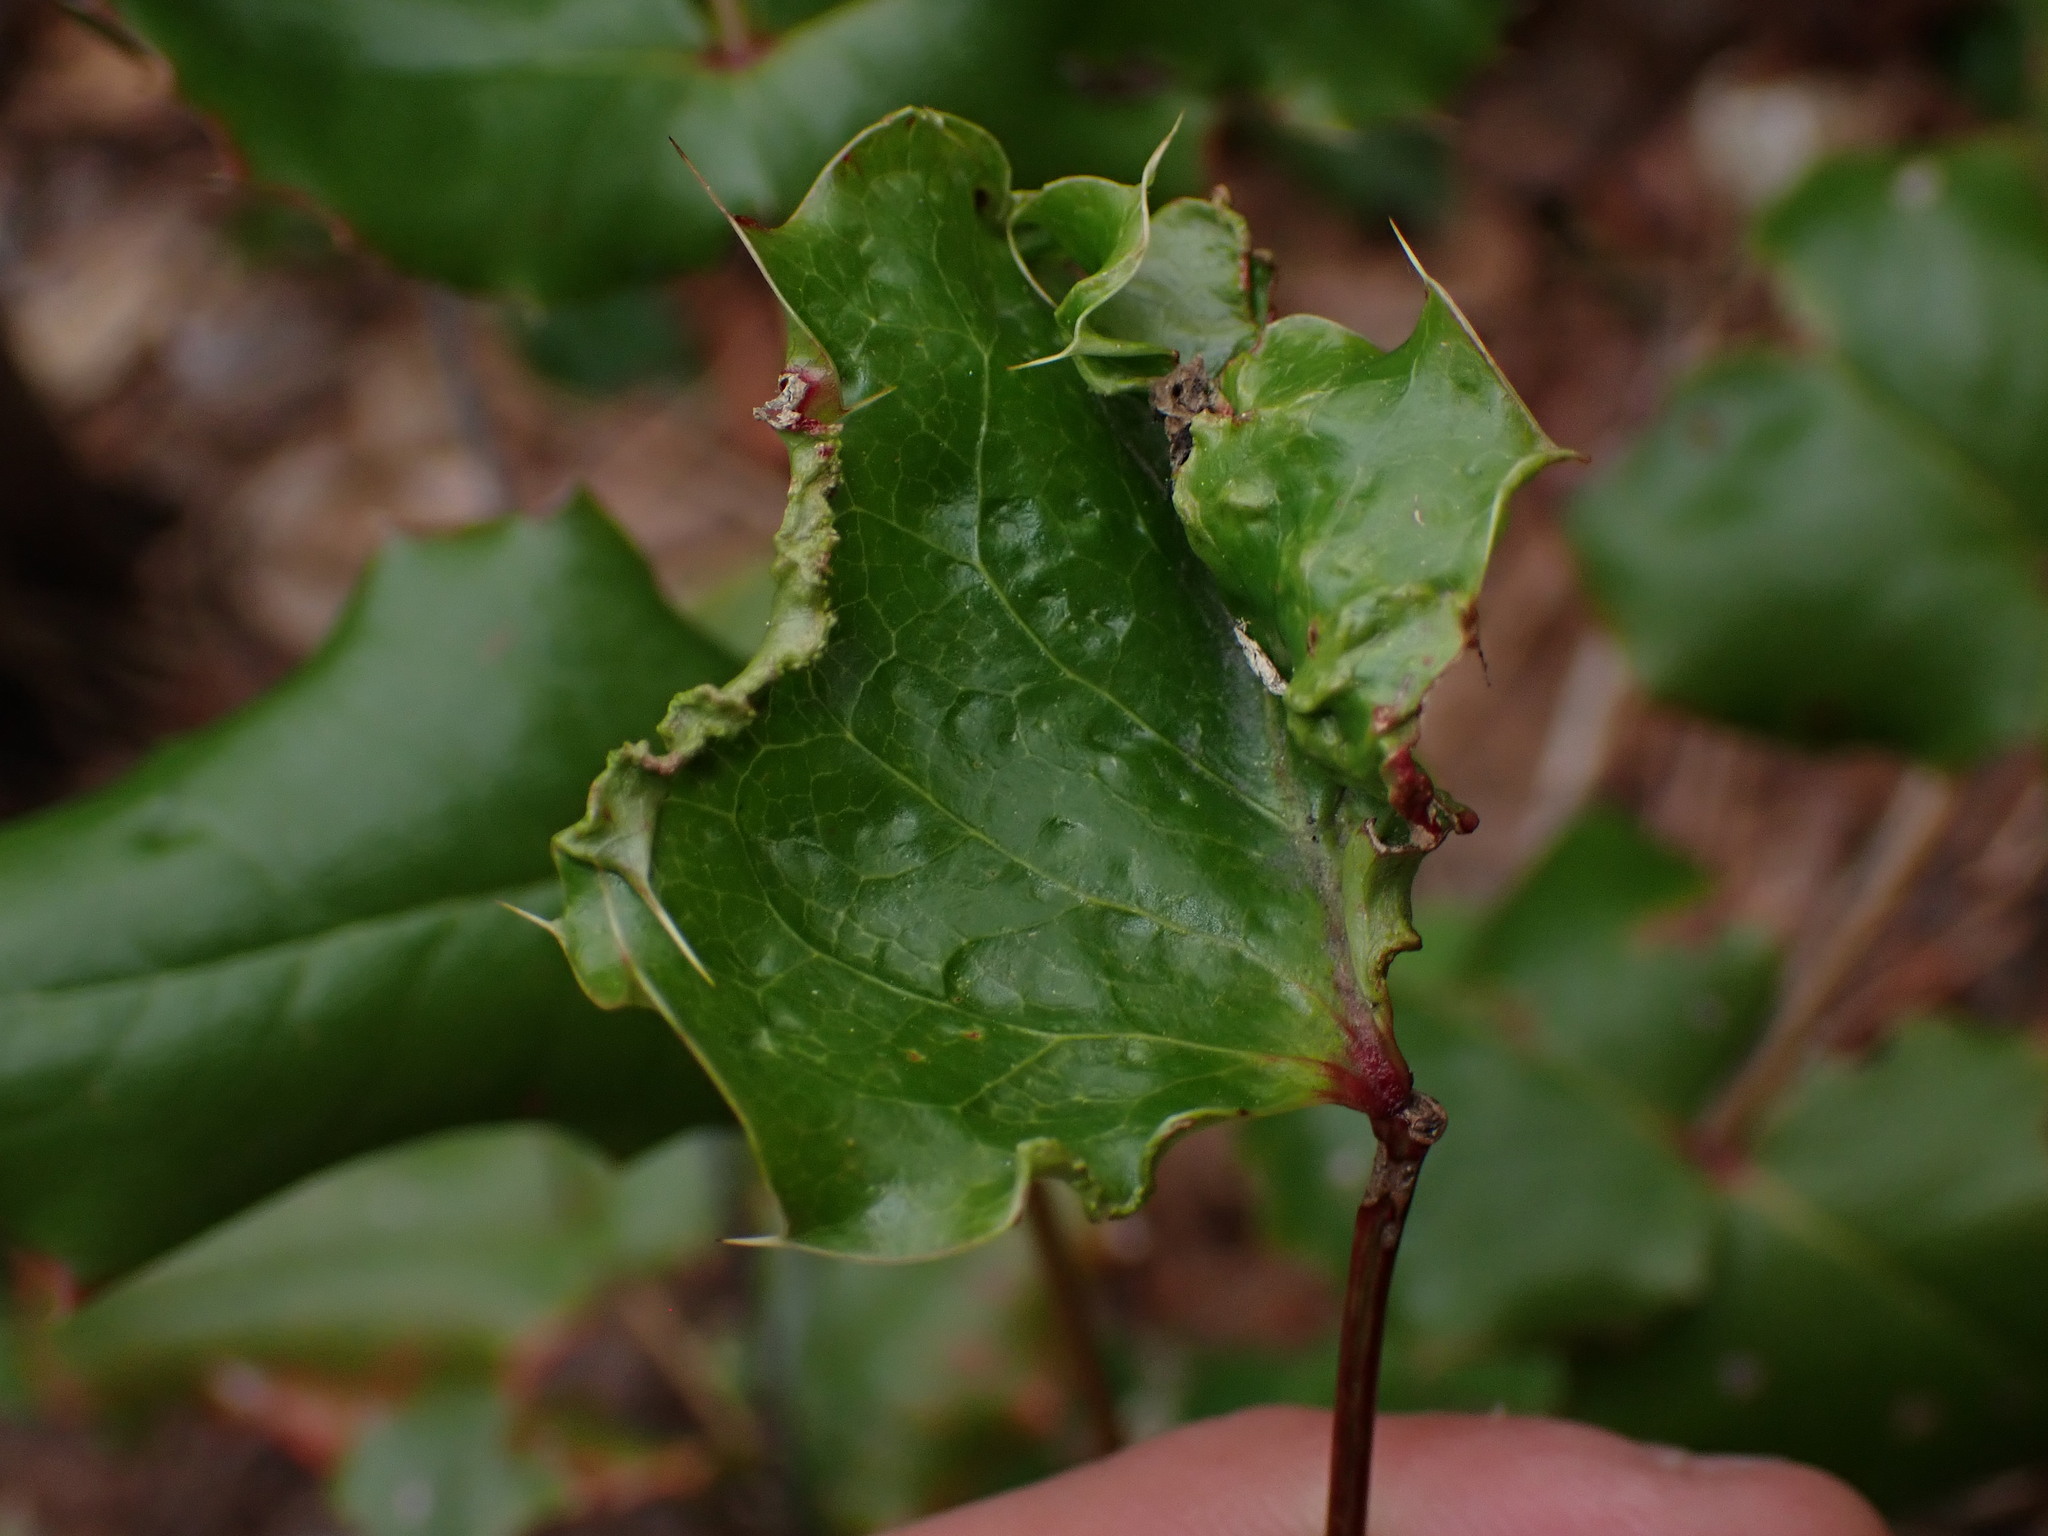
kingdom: Animalia
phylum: Arthropoda
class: Arachnida
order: Trombidiformes
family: Eriophyidae
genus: Aceria
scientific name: Aceria caliberberis
